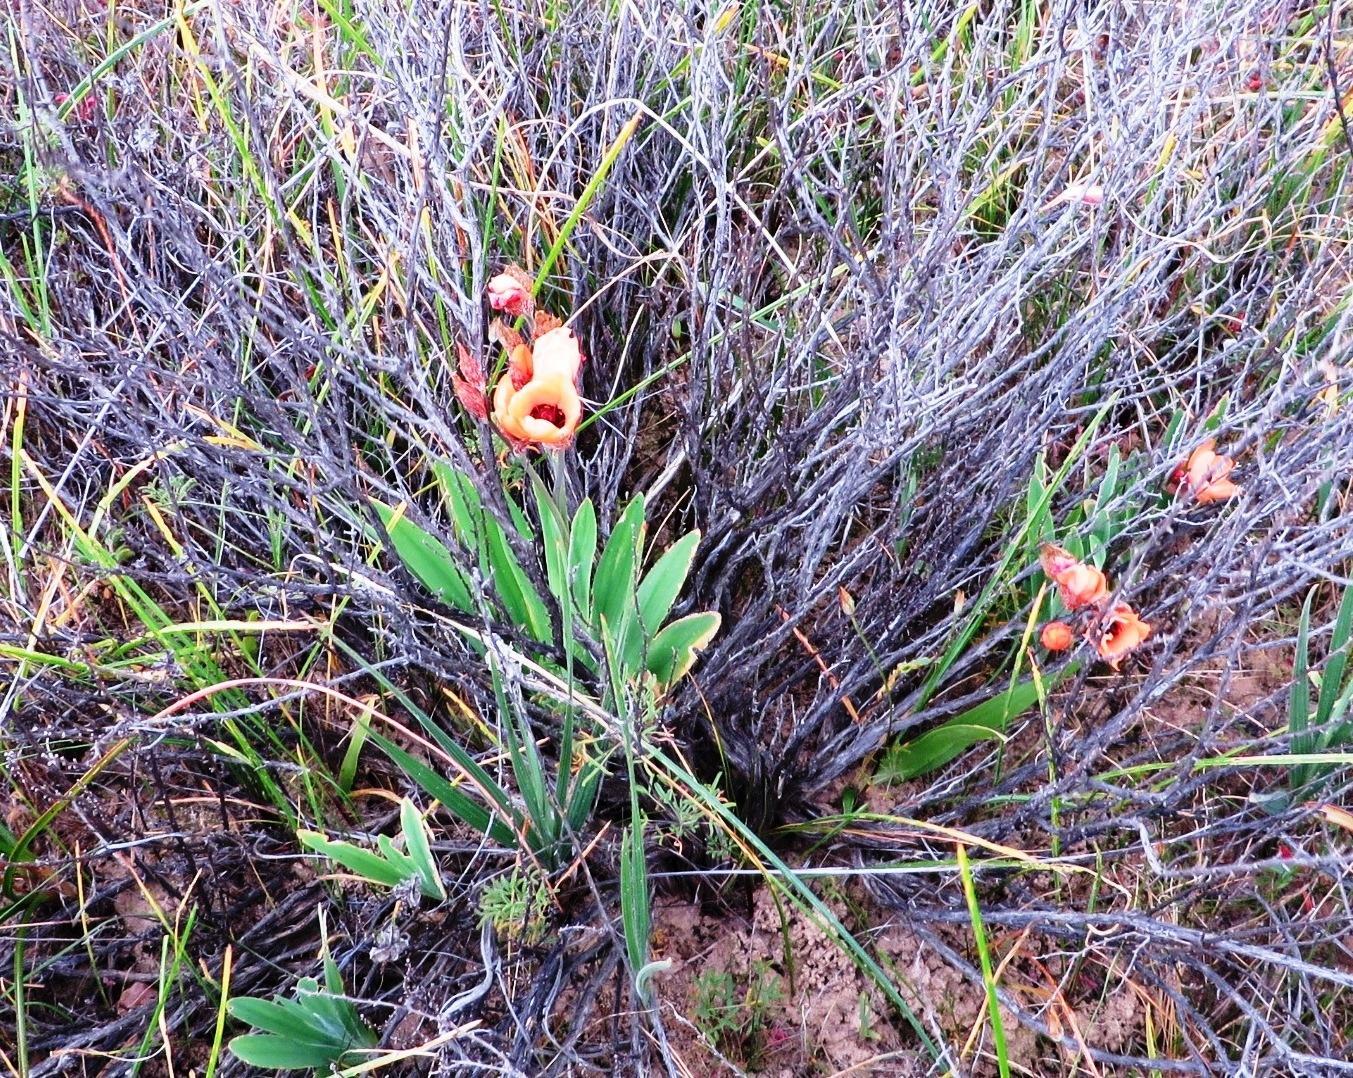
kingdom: Plantae
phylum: Tracheophyta
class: Liliopsida
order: Asparagales
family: Iridaceae
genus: Sparaxis
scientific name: Sparaxis elegans
